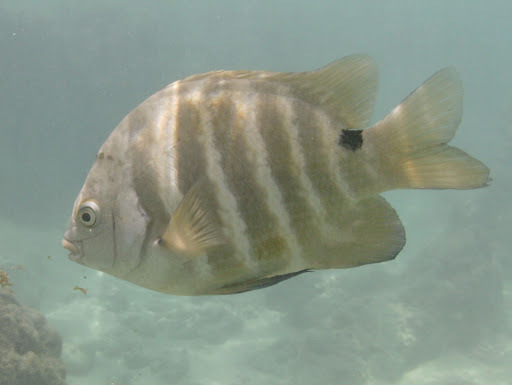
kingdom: Animalia
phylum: Chordata
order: Perciformes
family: Pomacentridae
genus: Abudefduf
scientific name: Abudefduf sordidus
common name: Blackspot sergeant
